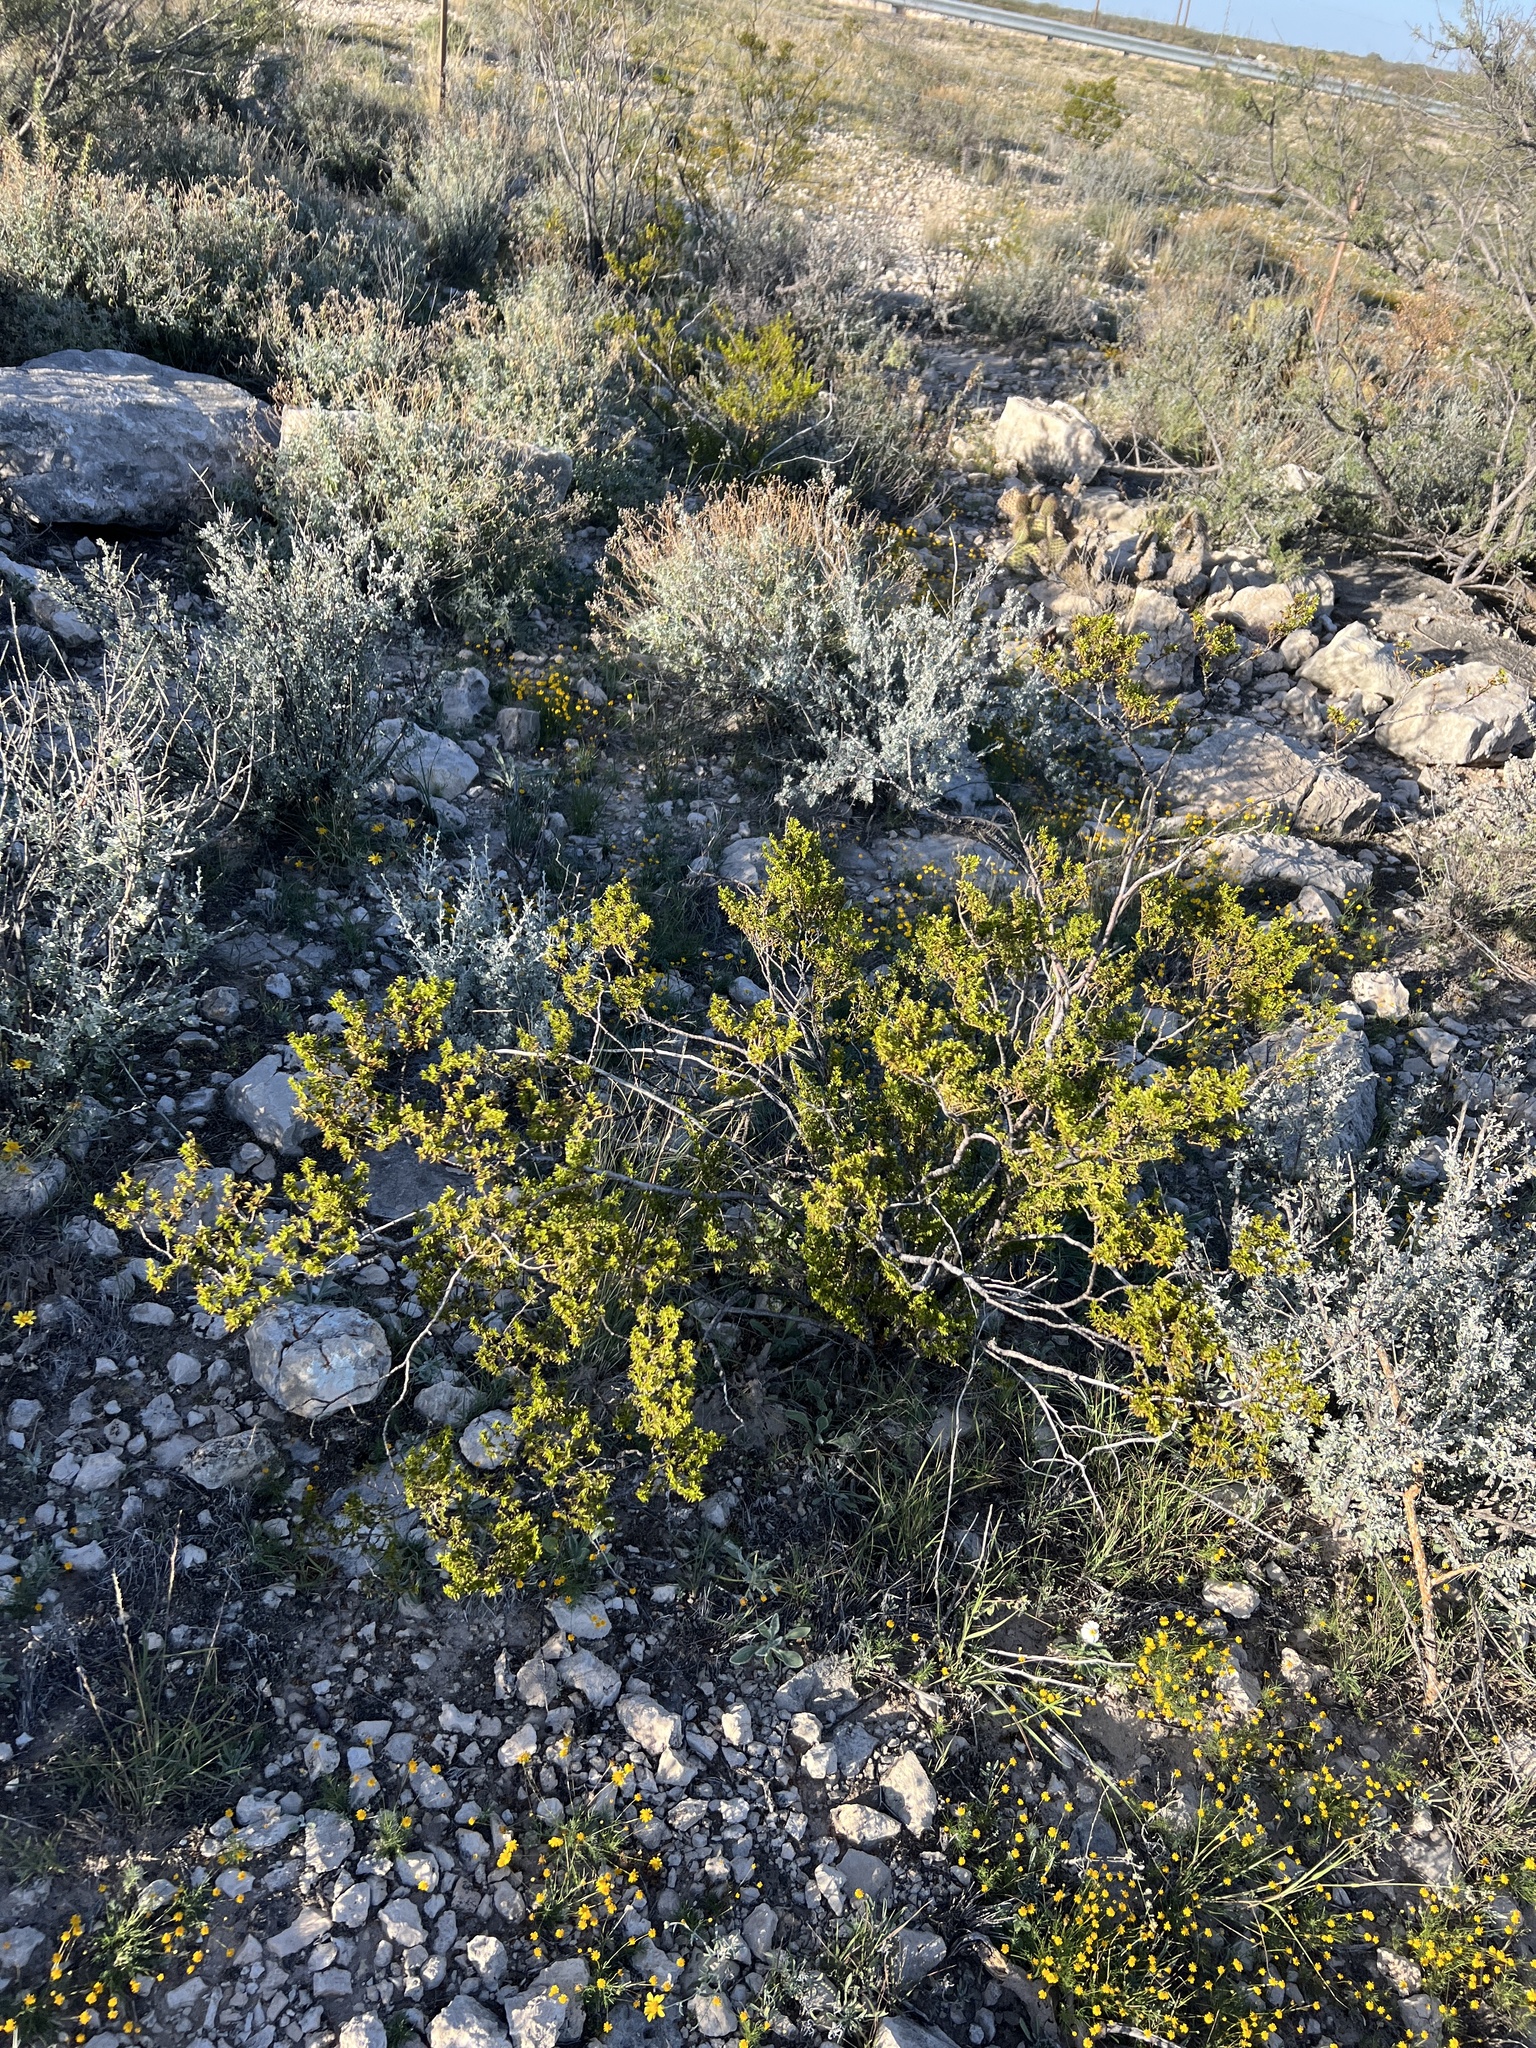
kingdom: Plantae
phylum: Tracheophyta
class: Magnoliopsida
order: Zygophyllales
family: Zygophyllaceae
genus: Larrea
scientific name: Larrea tridentata
